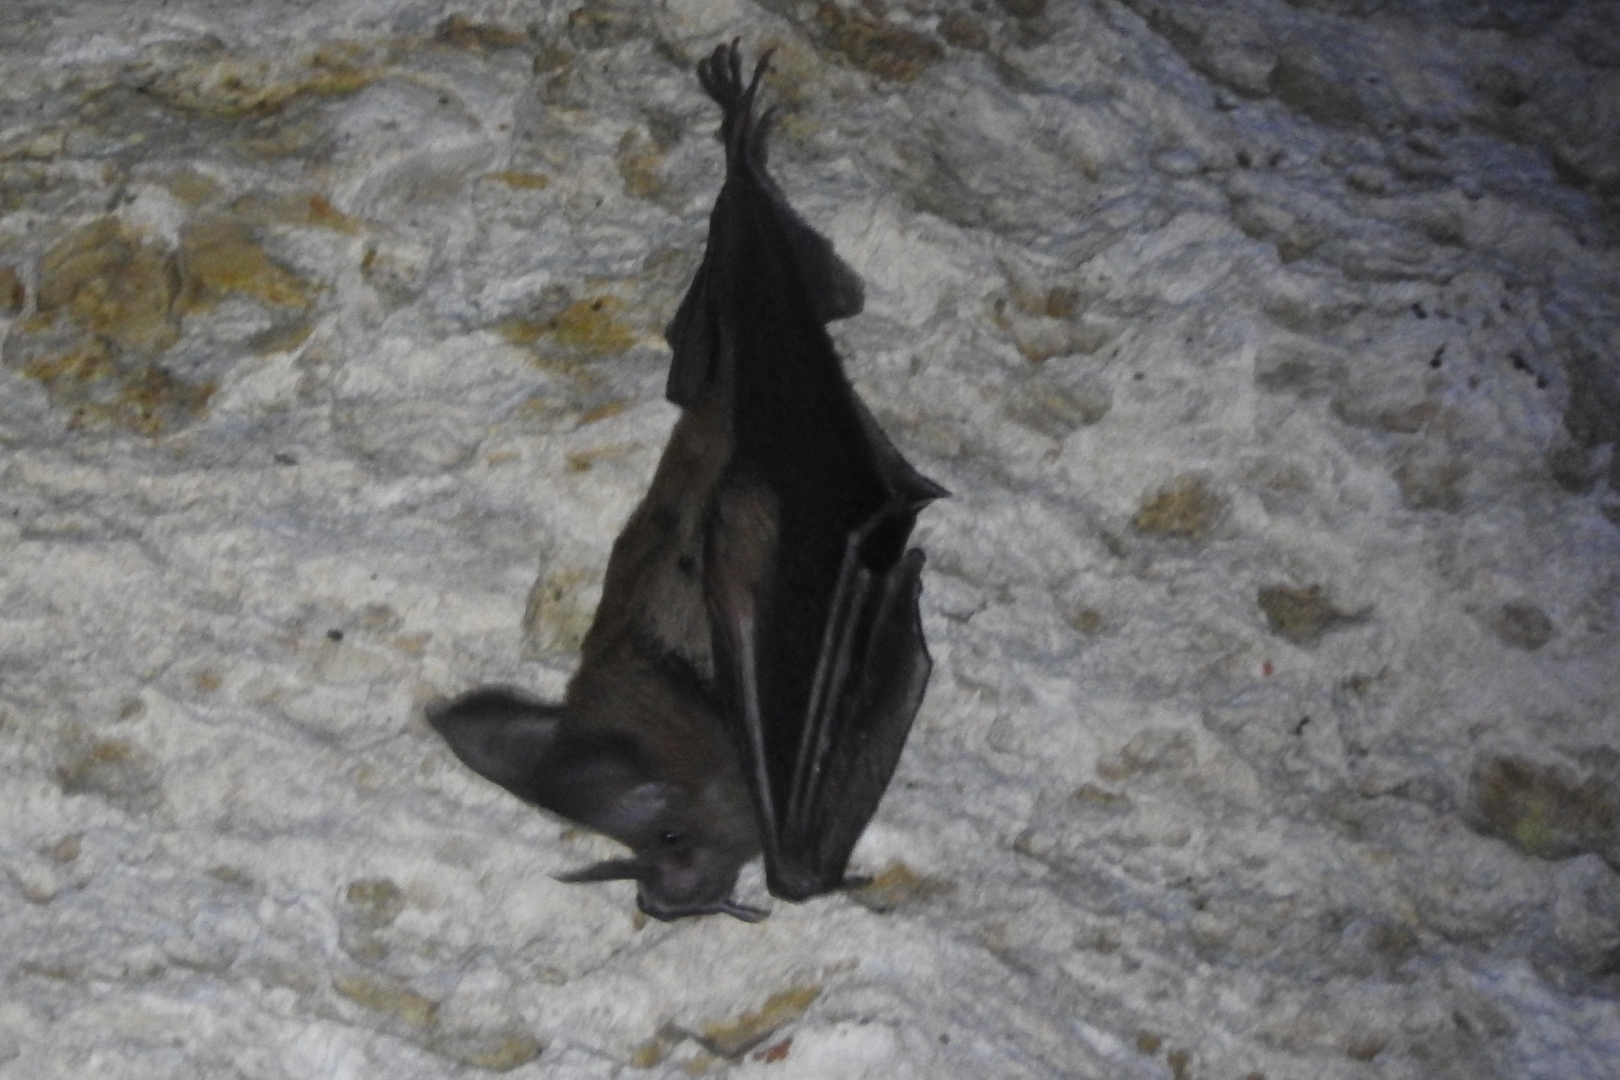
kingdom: Animalia
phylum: Chordata
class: Mammalia
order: Chiroptera
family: Phyllostomidae
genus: Mimon
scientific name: Mimon cozumelae
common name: Cozumelan golden bat
